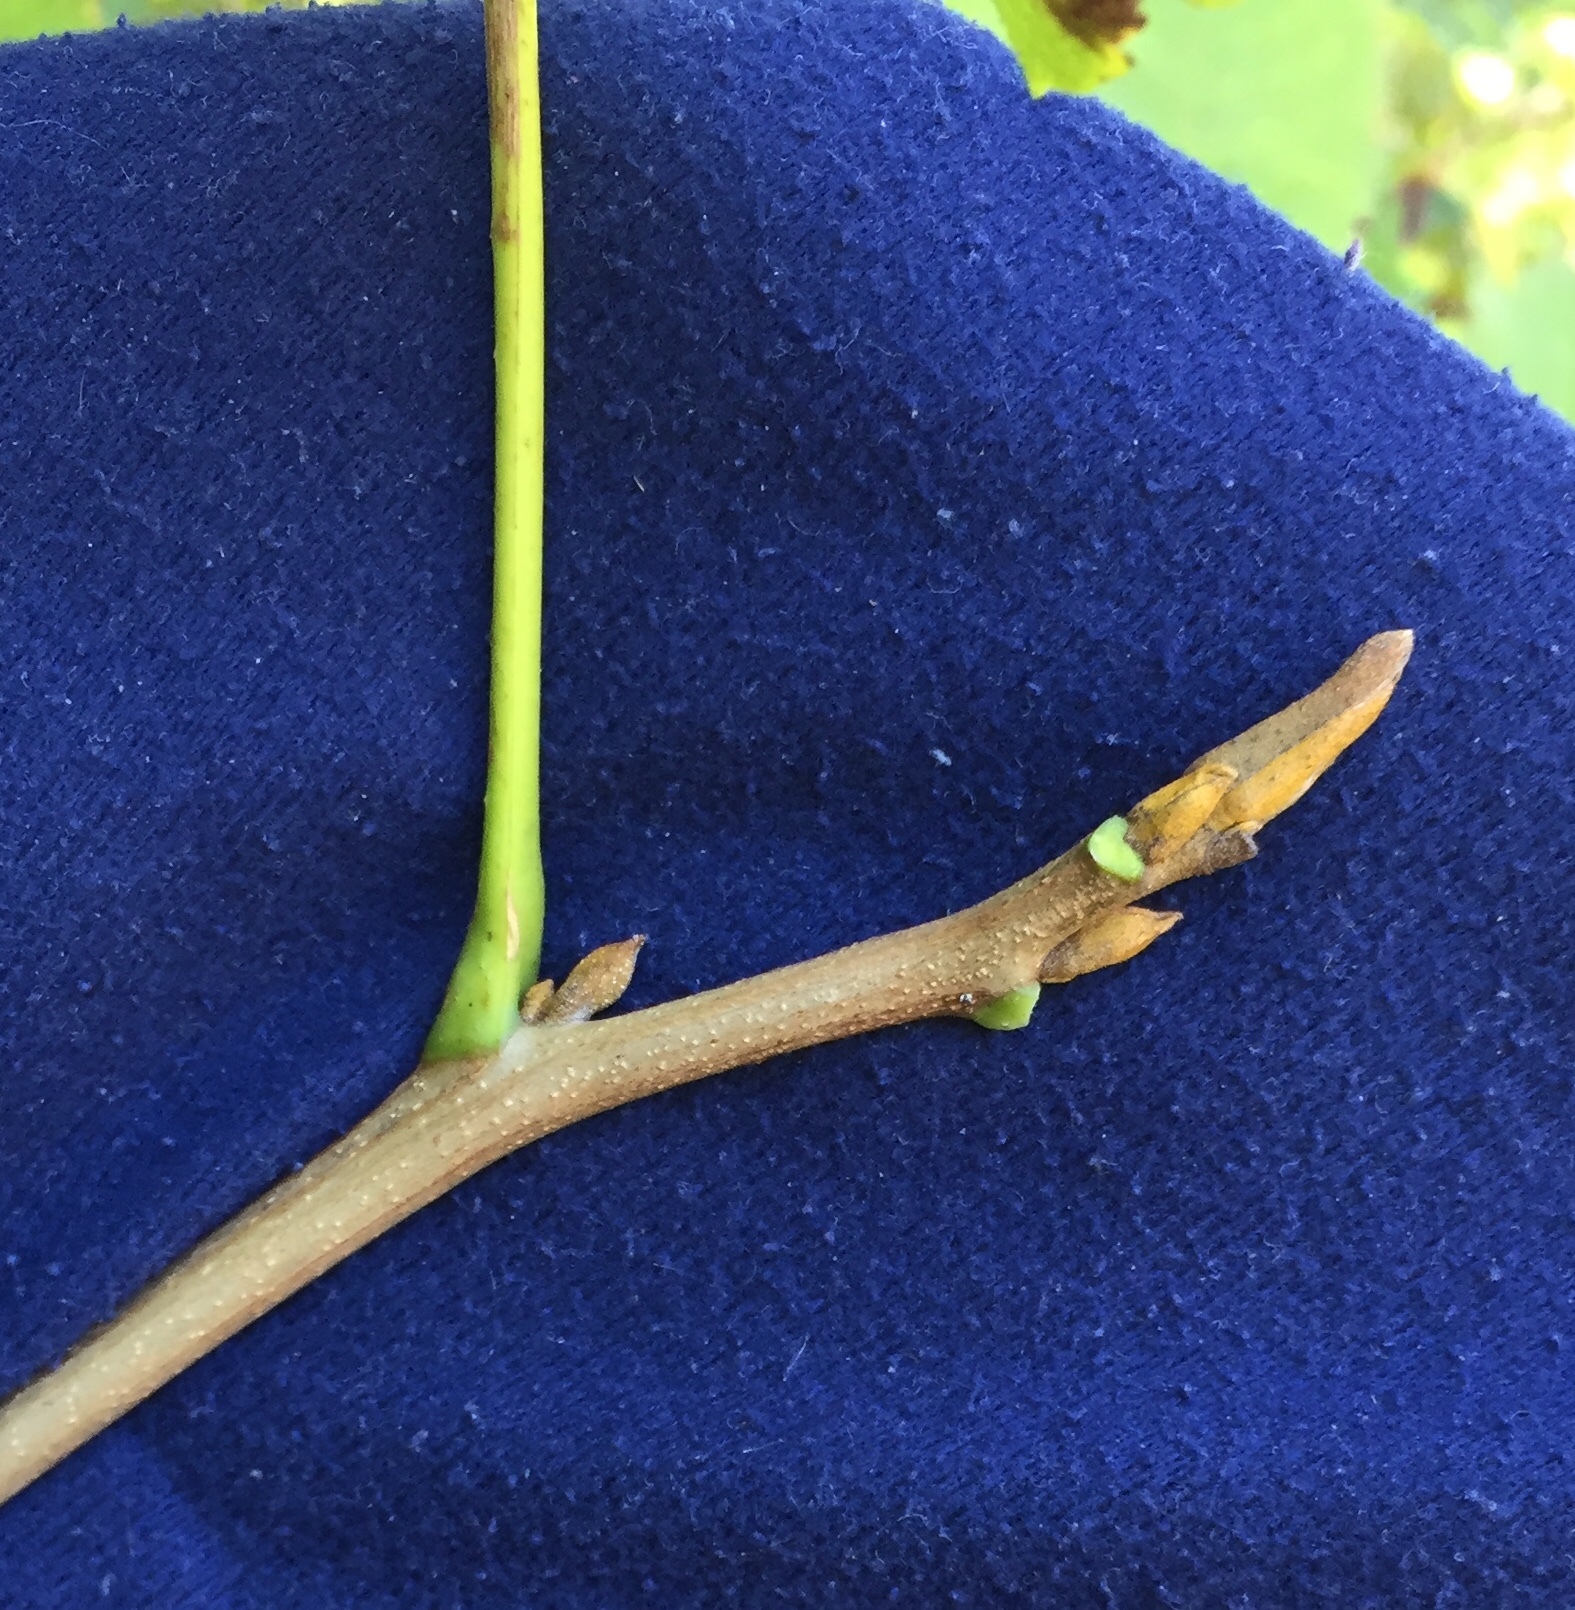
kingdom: Plantae
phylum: Tracheophyta
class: Magnoliopsida
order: Fagales
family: Juglandaceae
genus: Carya
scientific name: Carya cordiformis
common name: Bitternut hickory
